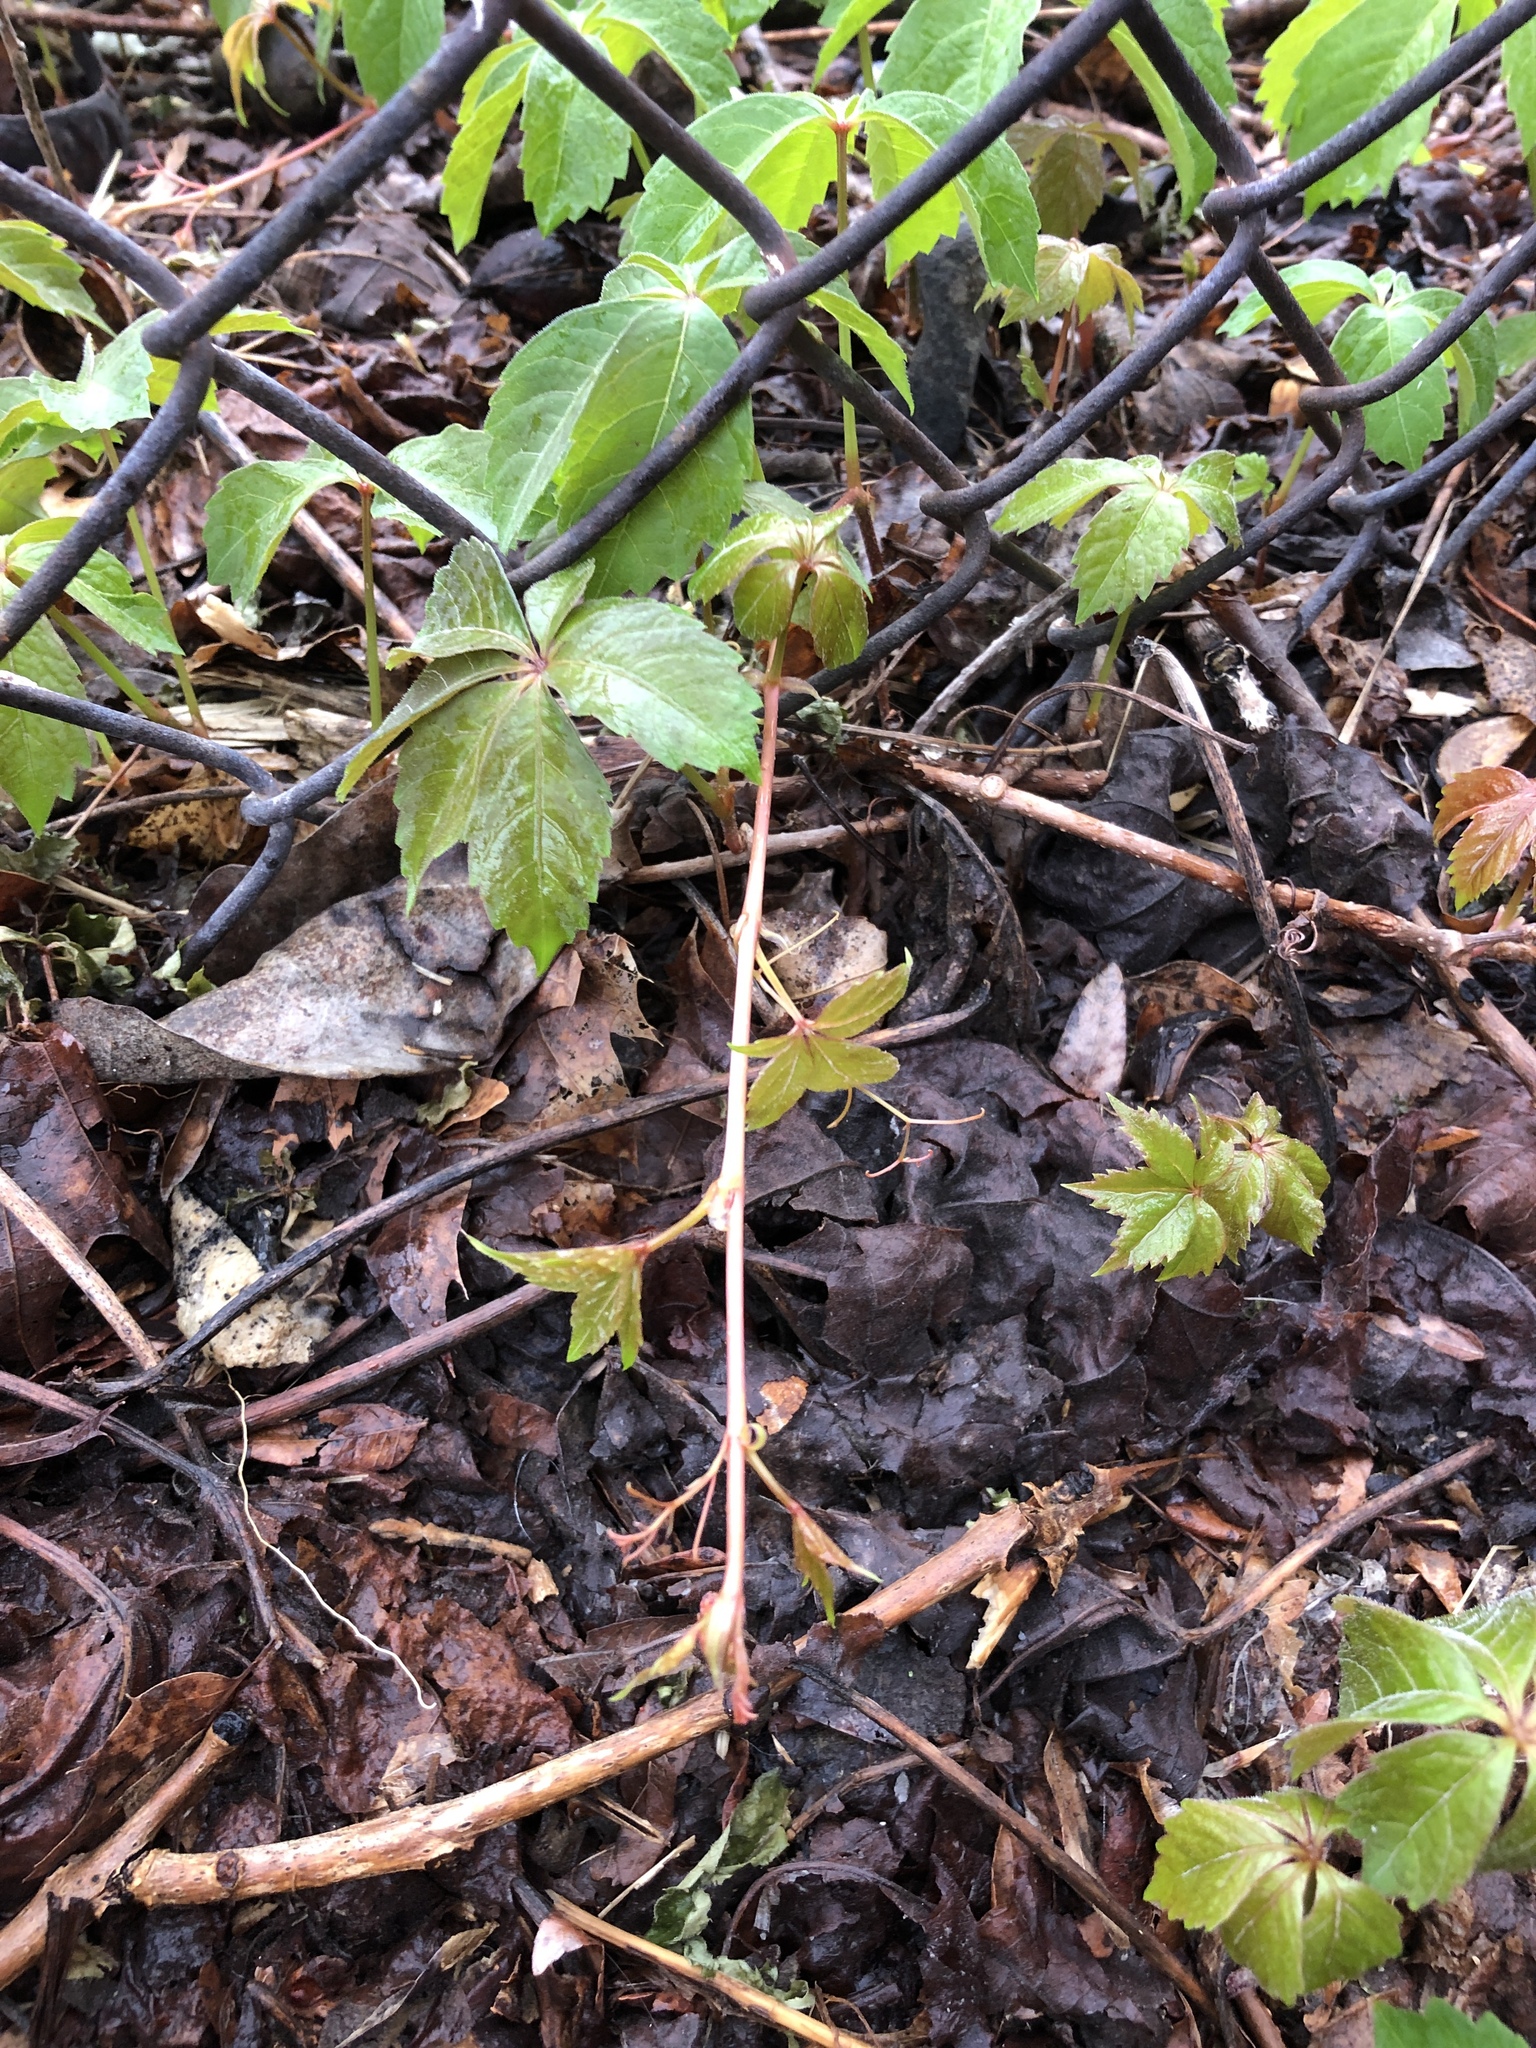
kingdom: Plantae
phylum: Tracheophyta
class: Magnoliopsida
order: Vitales
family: Vitaceae
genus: Parthenocissus
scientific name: Parthenocissus quinquefolia
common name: Virginia-creeper
